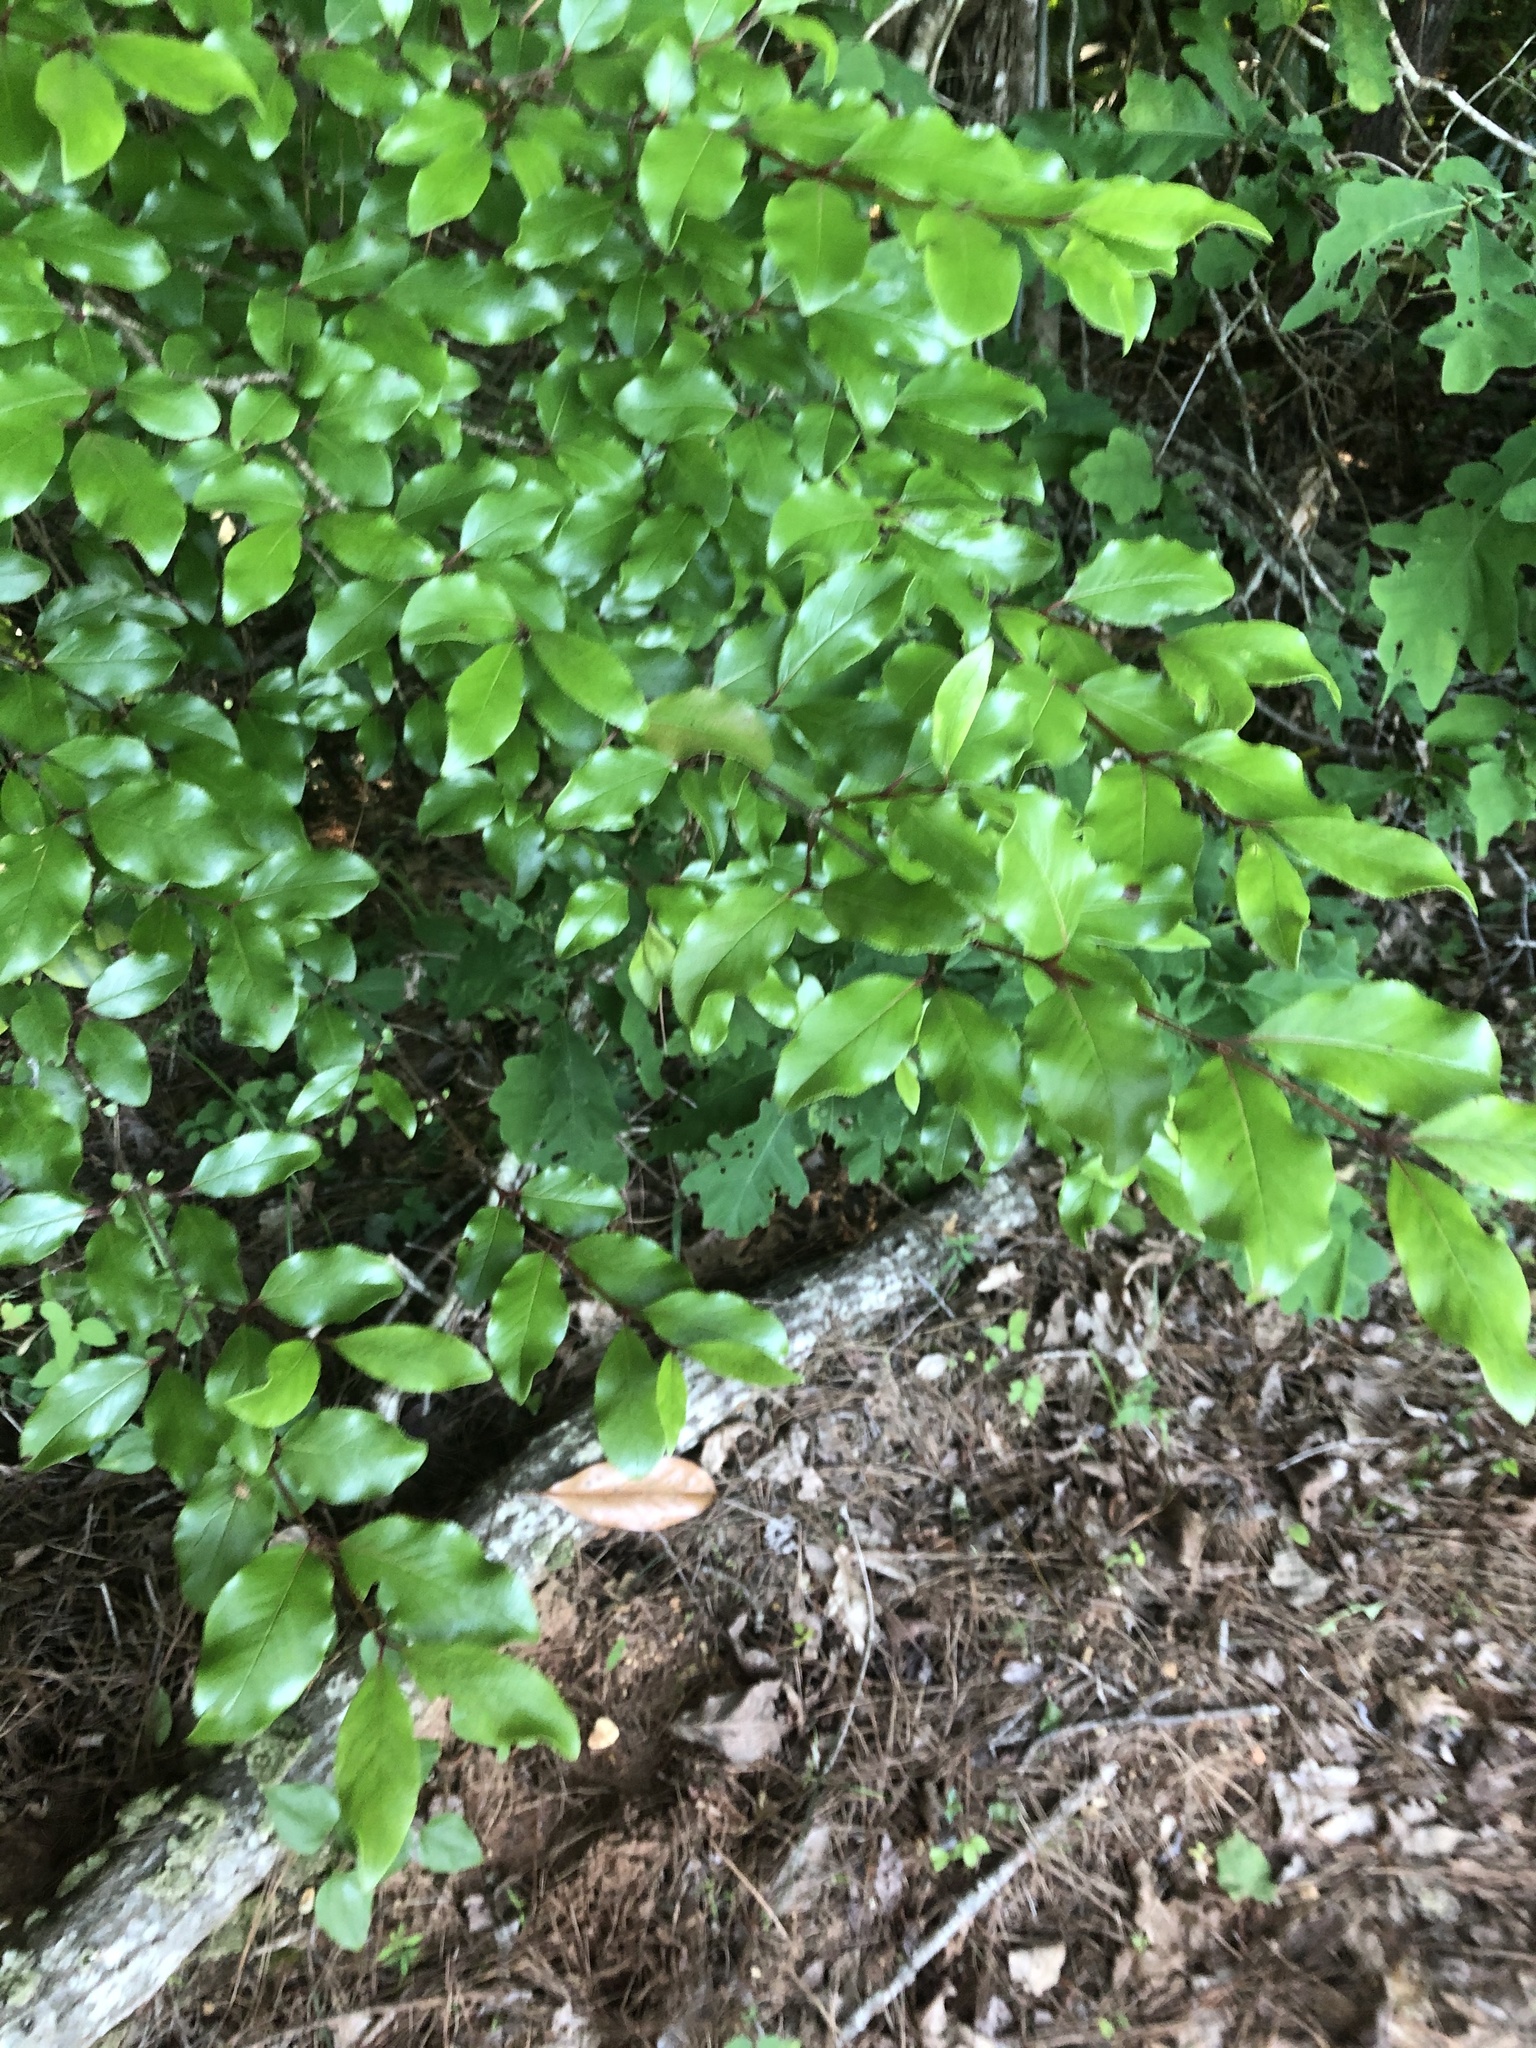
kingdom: Plantae
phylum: Tracheophyta
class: Magnoliopsida
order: Dipsacales
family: Viburnaceae
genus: Viburnum
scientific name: Viburnum rufidulum
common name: Blue haw
